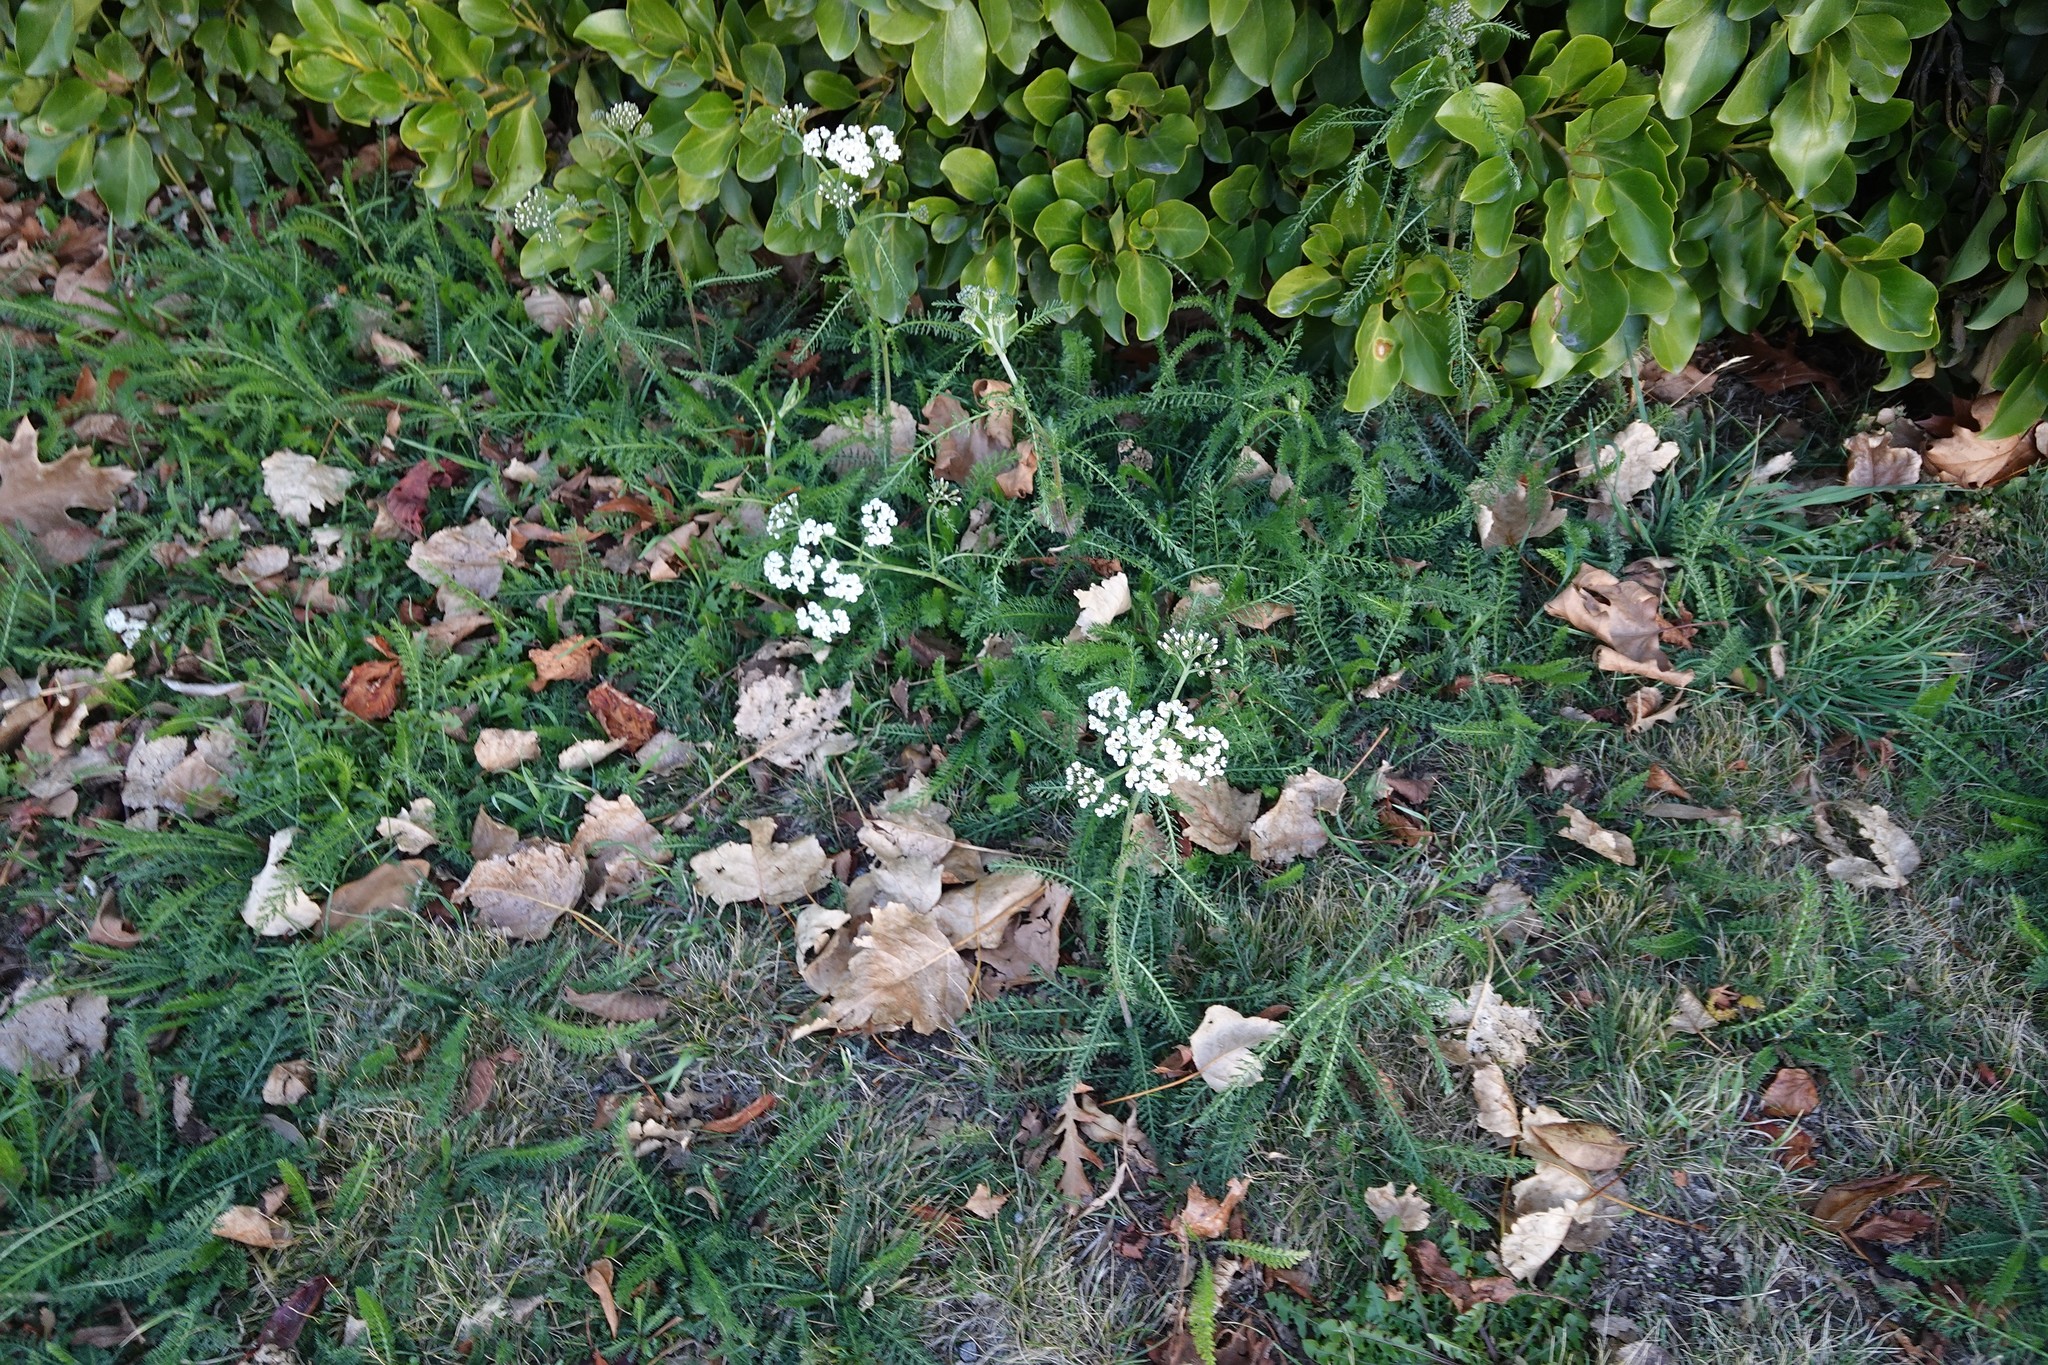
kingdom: Plantae
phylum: Tracheophyta
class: Magnoliopsida
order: Asterales
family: Asteraceae
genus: Achillea
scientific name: Achillea millefolium
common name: Yarrow
